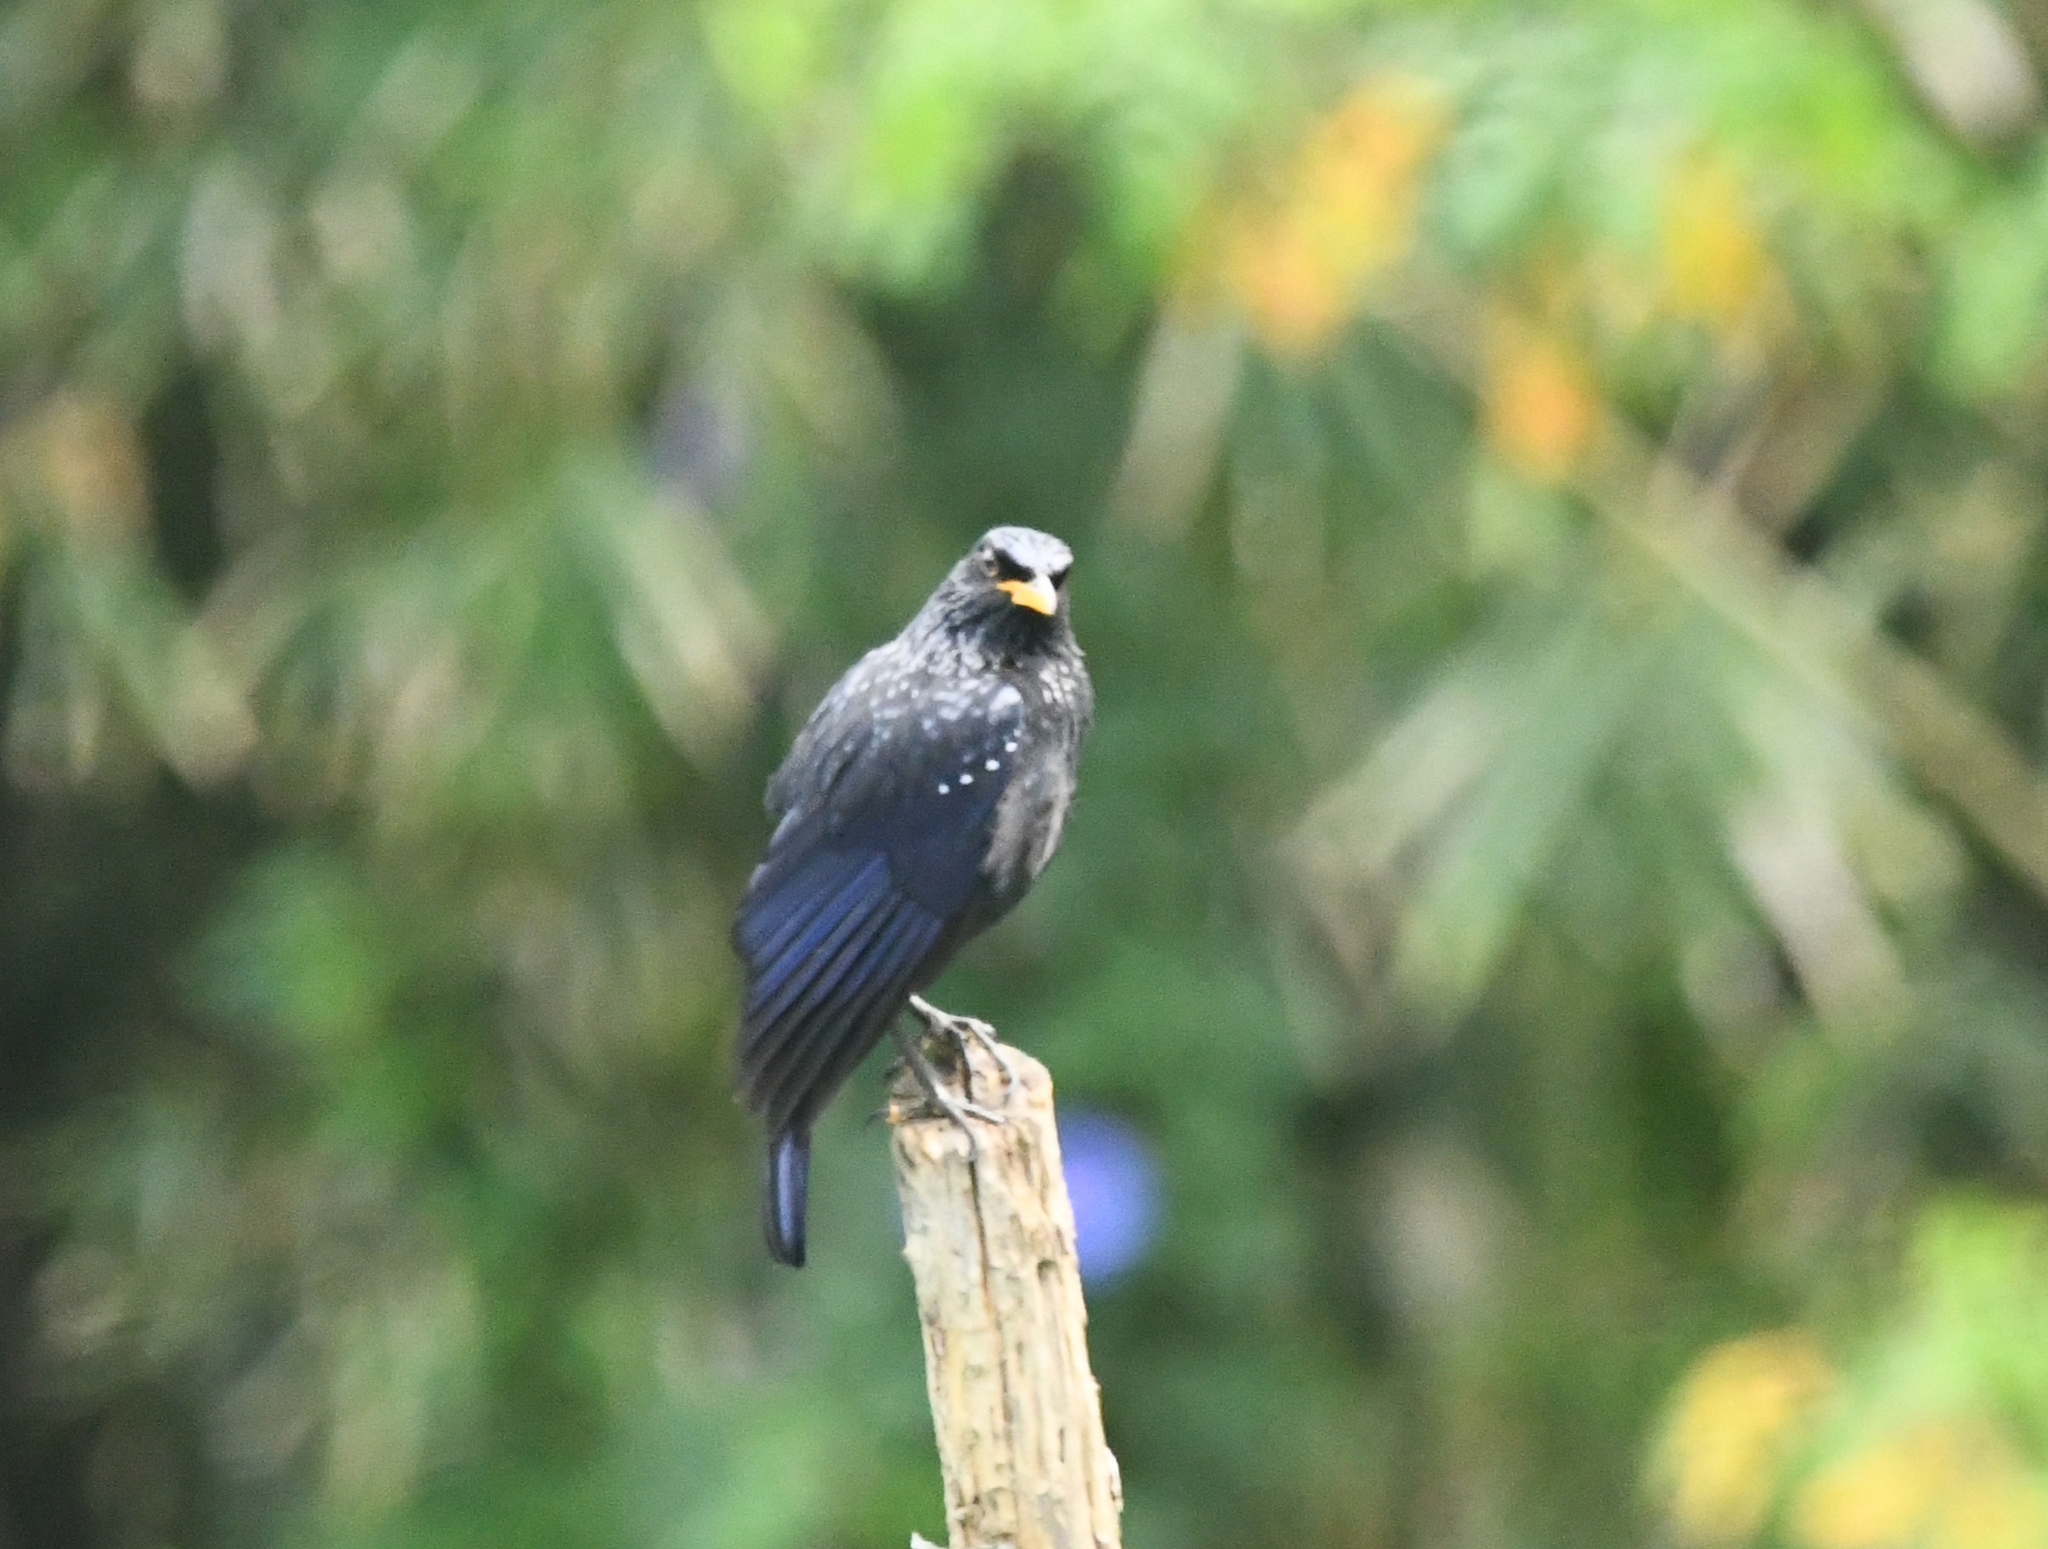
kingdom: Animalia
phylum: Chordata
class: Aves
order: Passeriformes
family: Muscicapidae
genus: Myophonus
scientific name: Myophonus caeruleus
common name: Blue whistling-thrush
